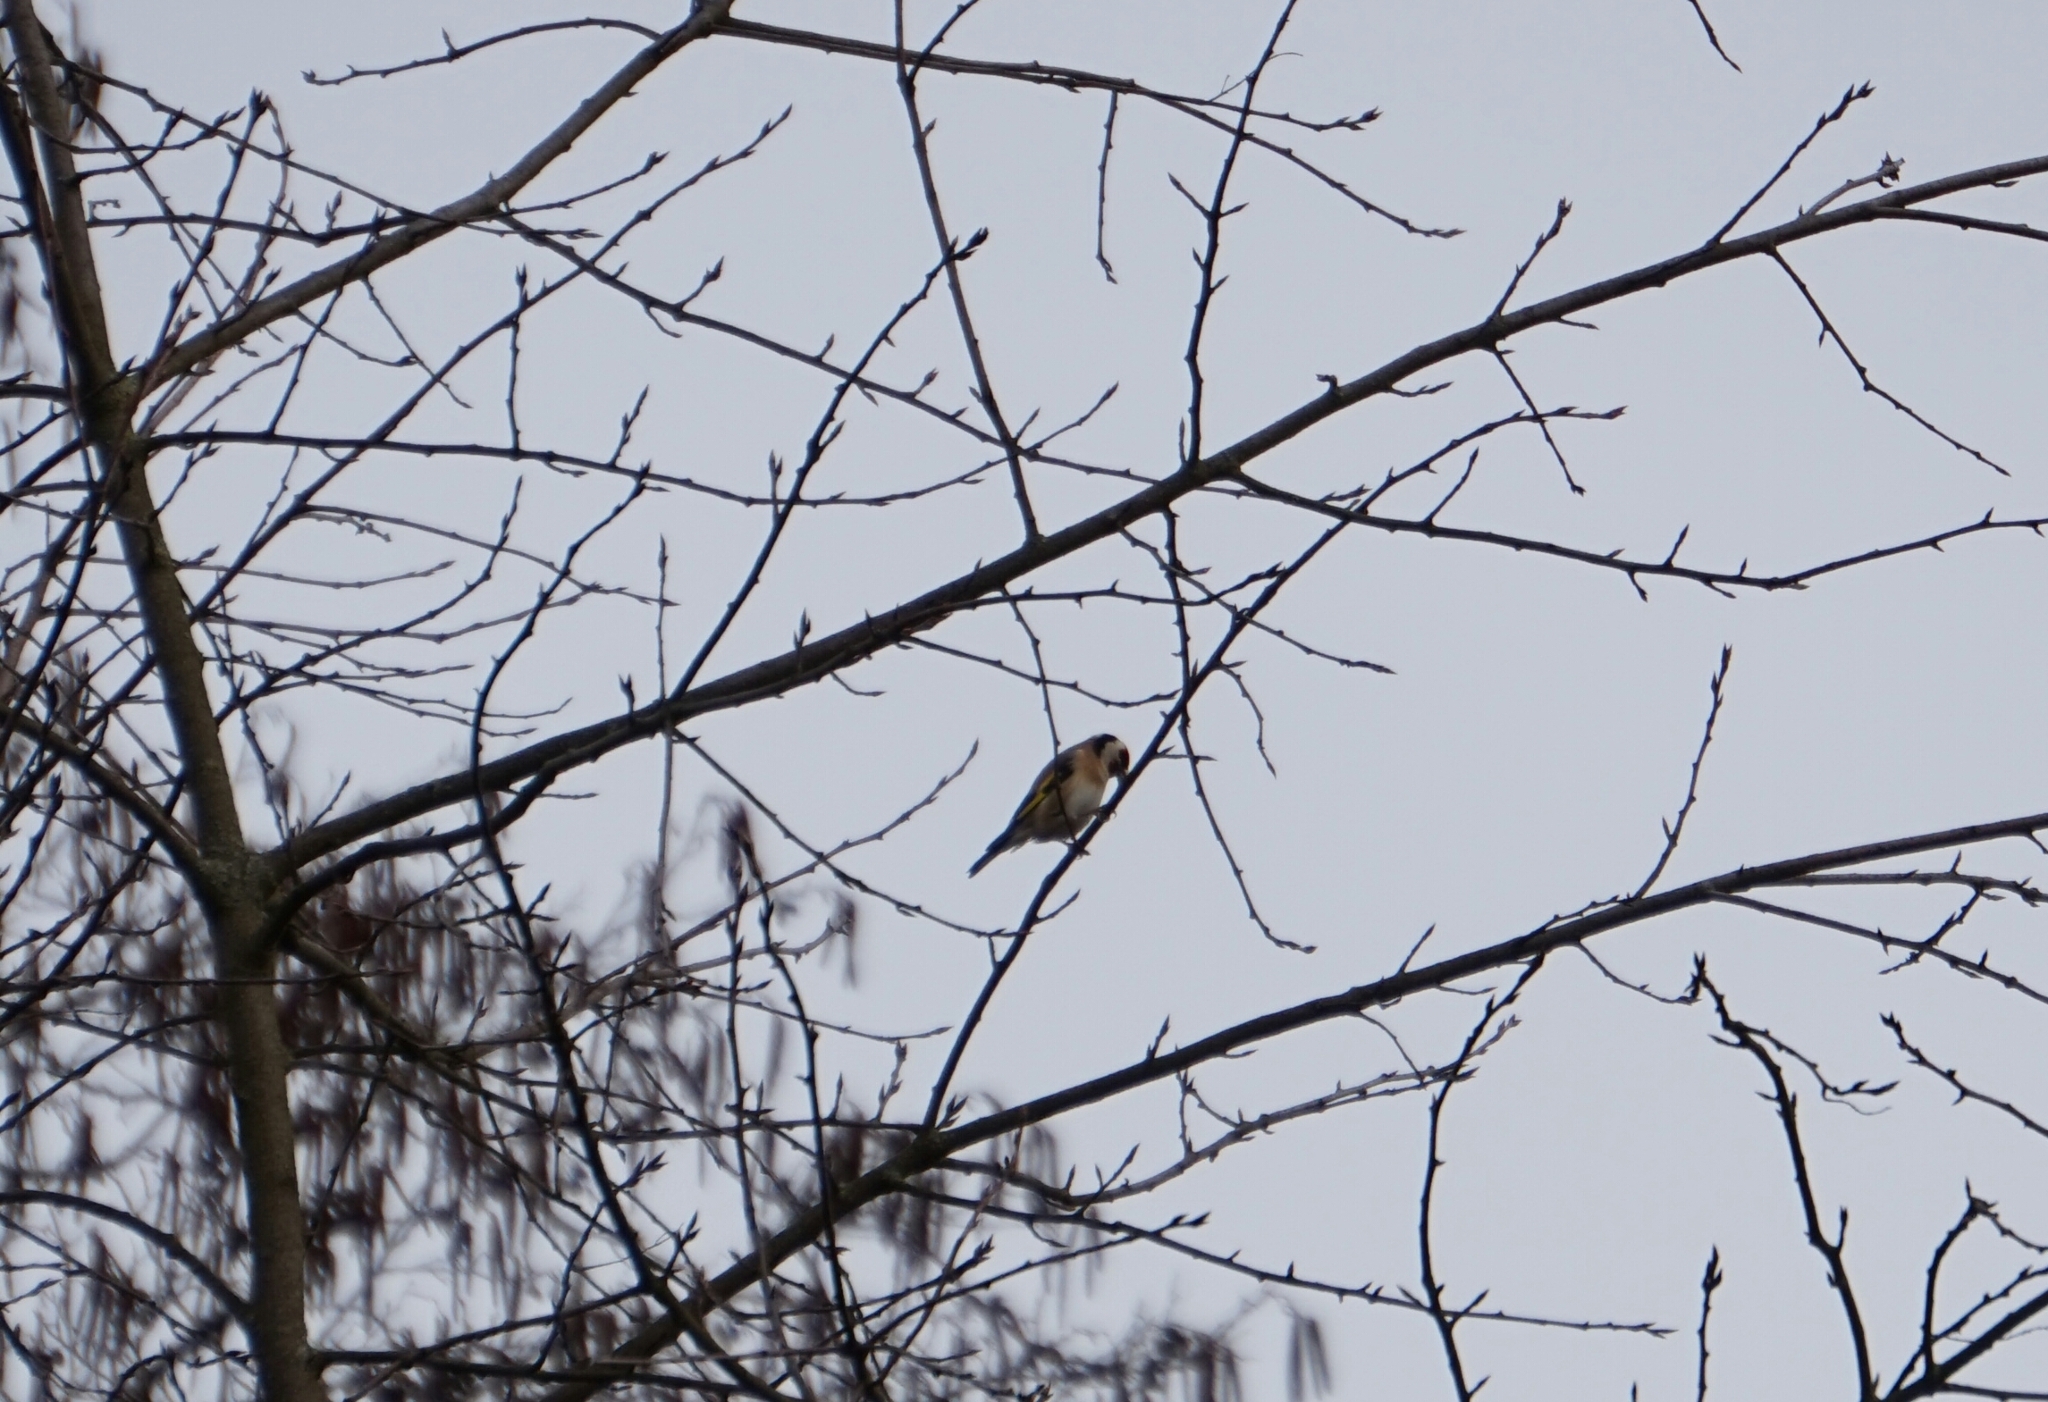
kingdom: Animalia
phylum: Chordata
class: Aves
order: Passeriformes
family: Fringillidae
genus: Carduelis
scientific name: Carduelis carduelis
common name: European goldfinch
